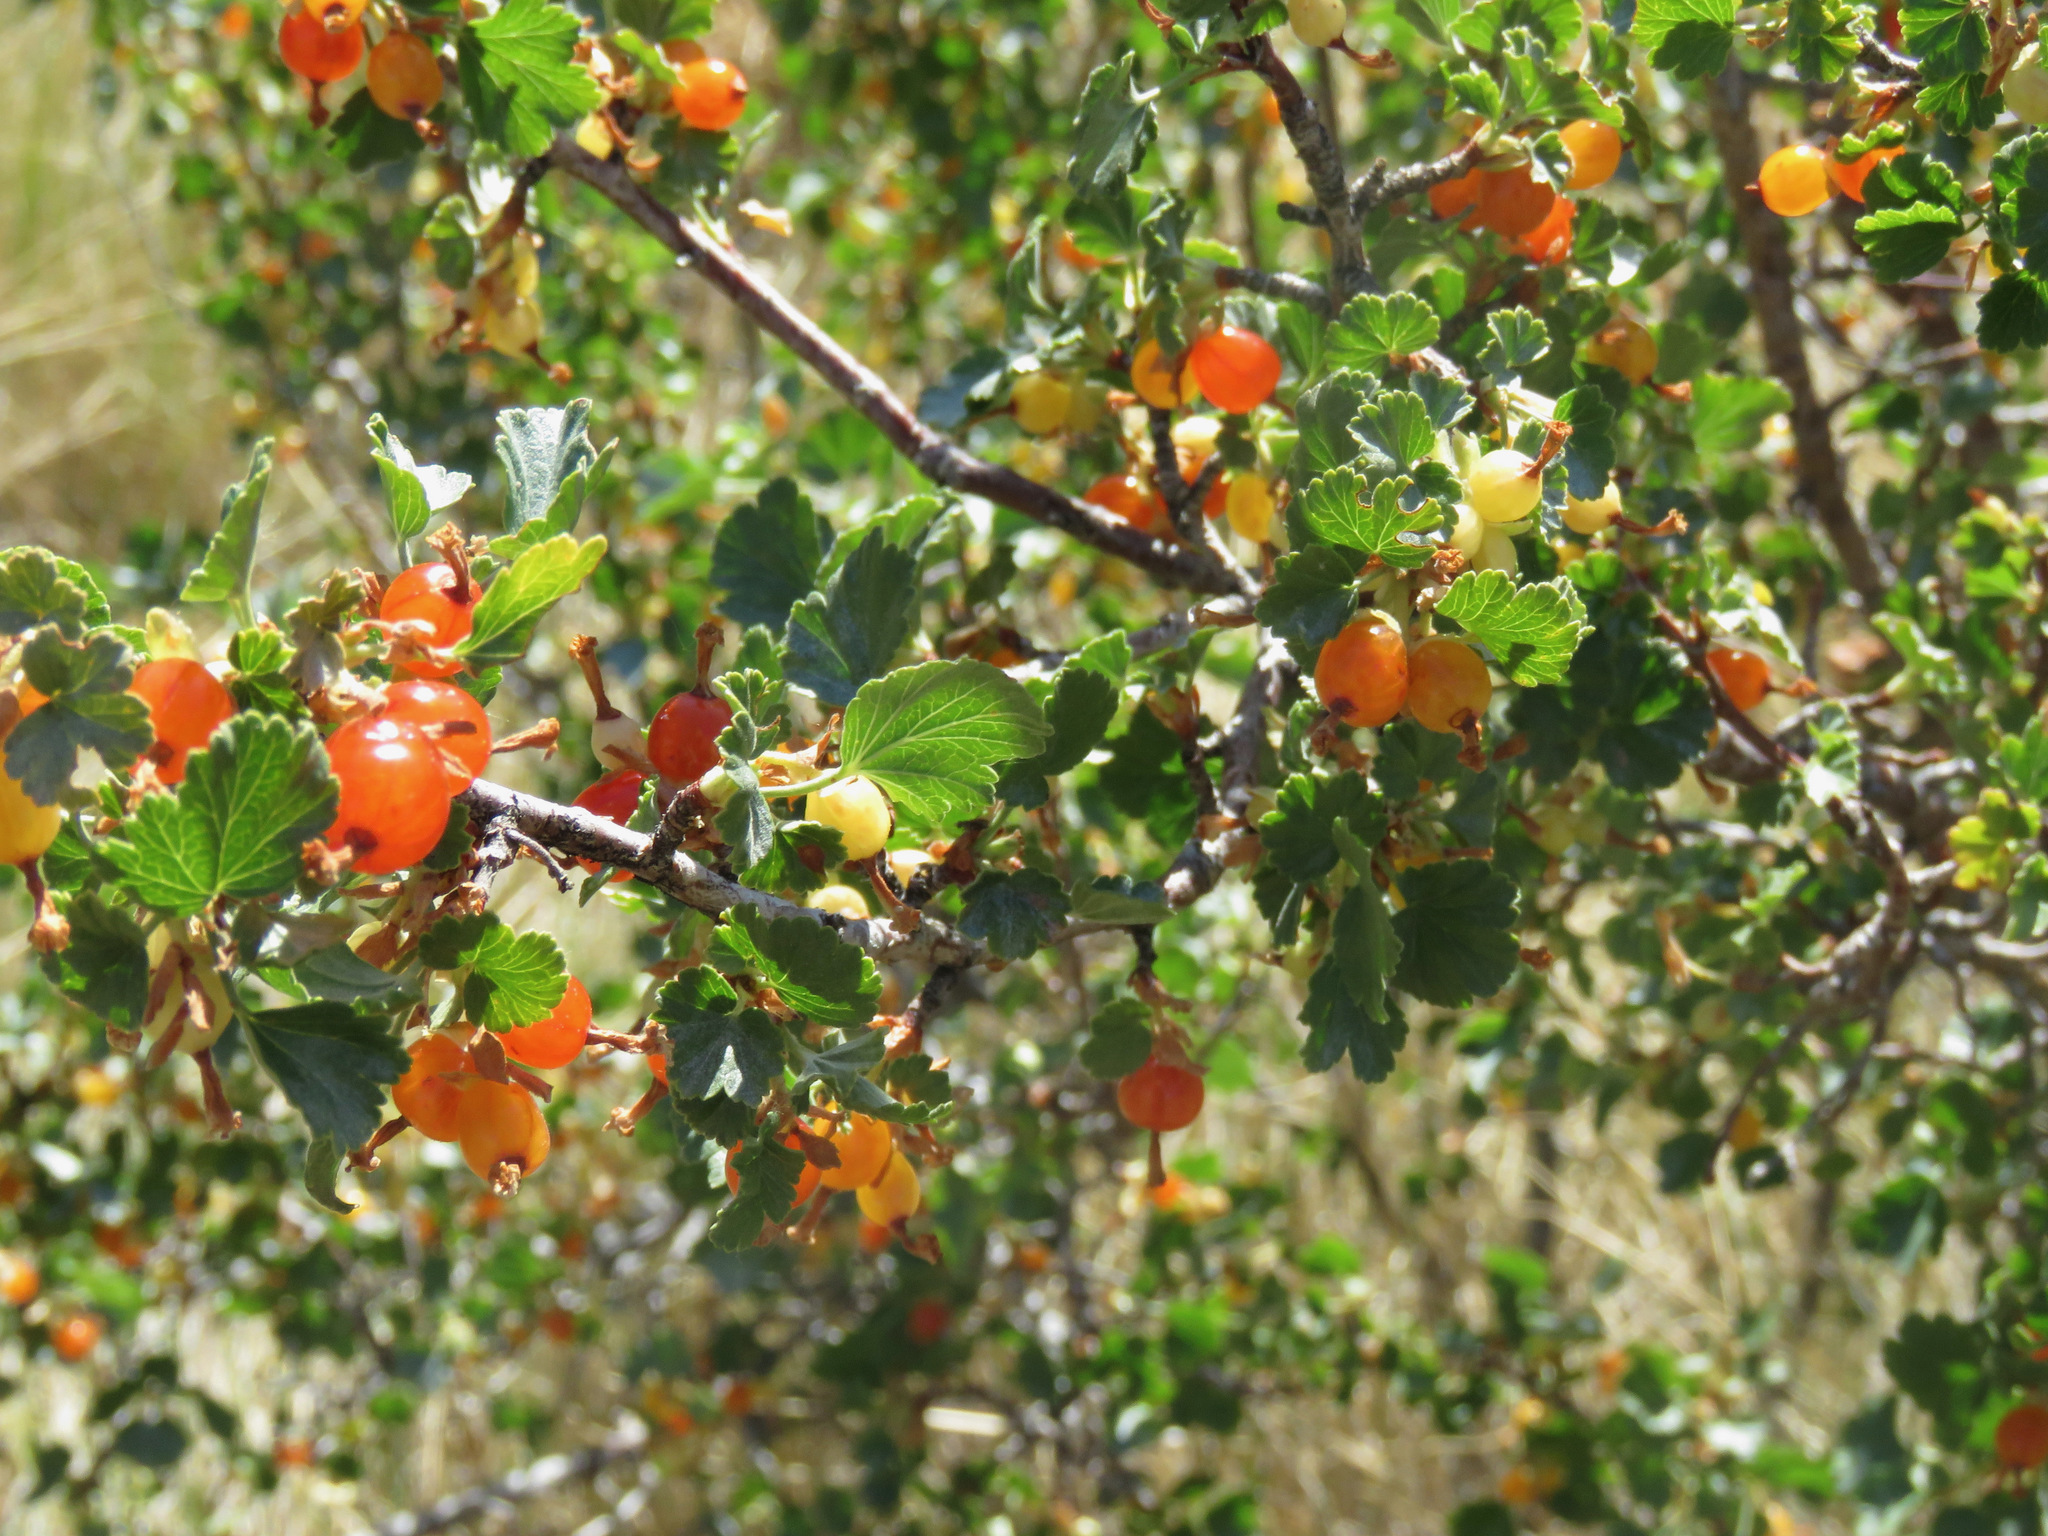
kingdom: Plantae
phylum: Tracheophyta
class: Magnoliopsida
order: Saxifragales
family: Grossulariaceae
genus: Ribes
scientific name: Ribes cereum
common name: Wax currant
